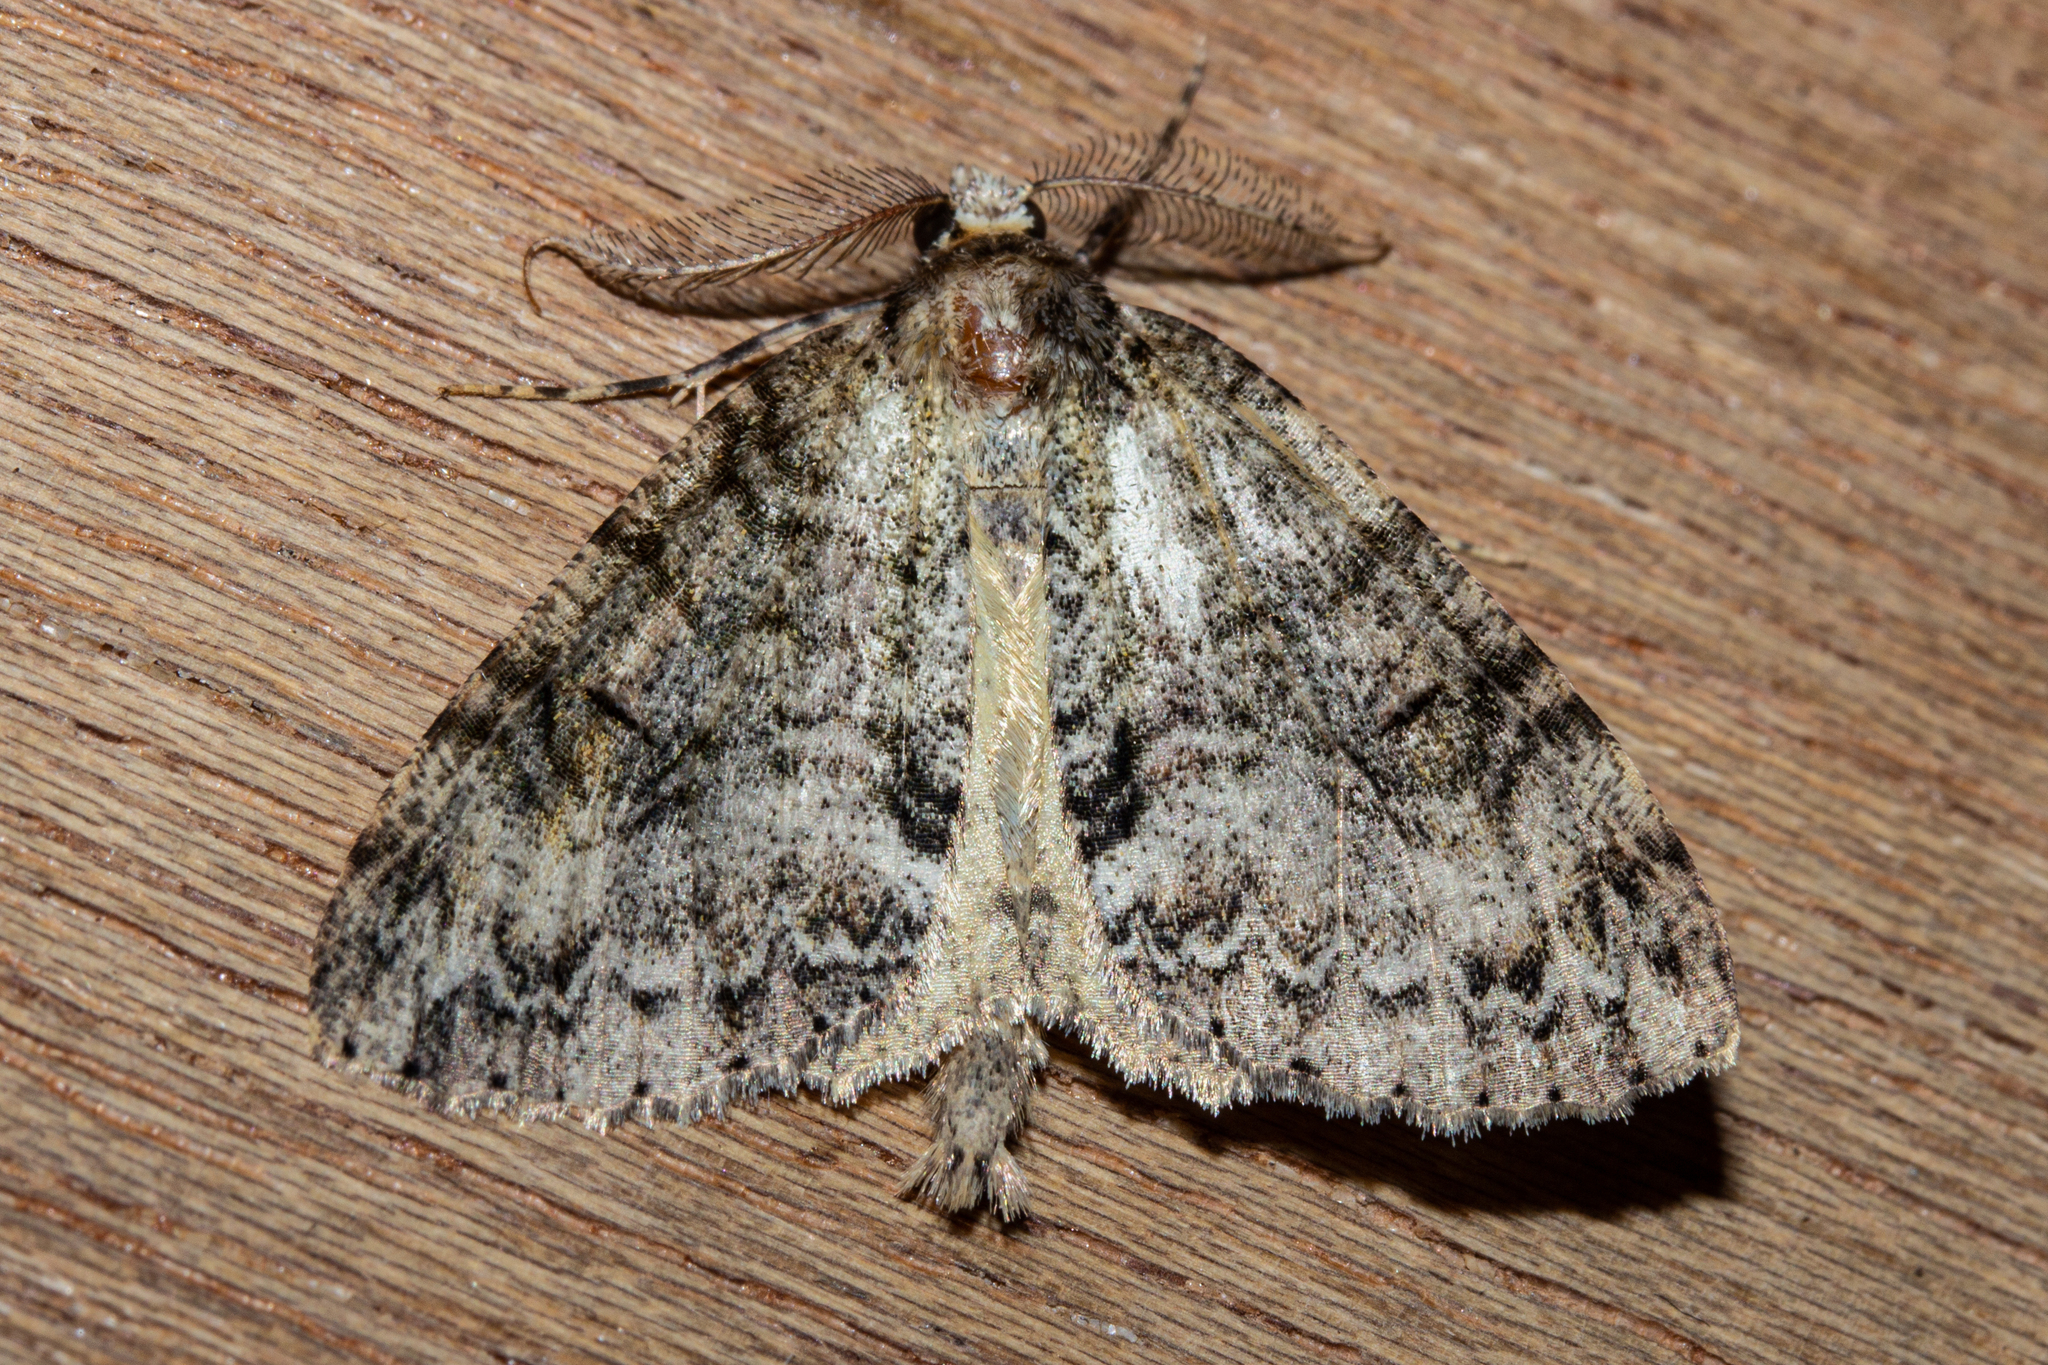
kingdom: Animalia
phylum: Arthropoda
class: Insecta
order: Lepidoptera
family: Geometridae
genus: Pseudocoremia
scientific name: Pseudocoremia suavis
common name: Common forest looper
